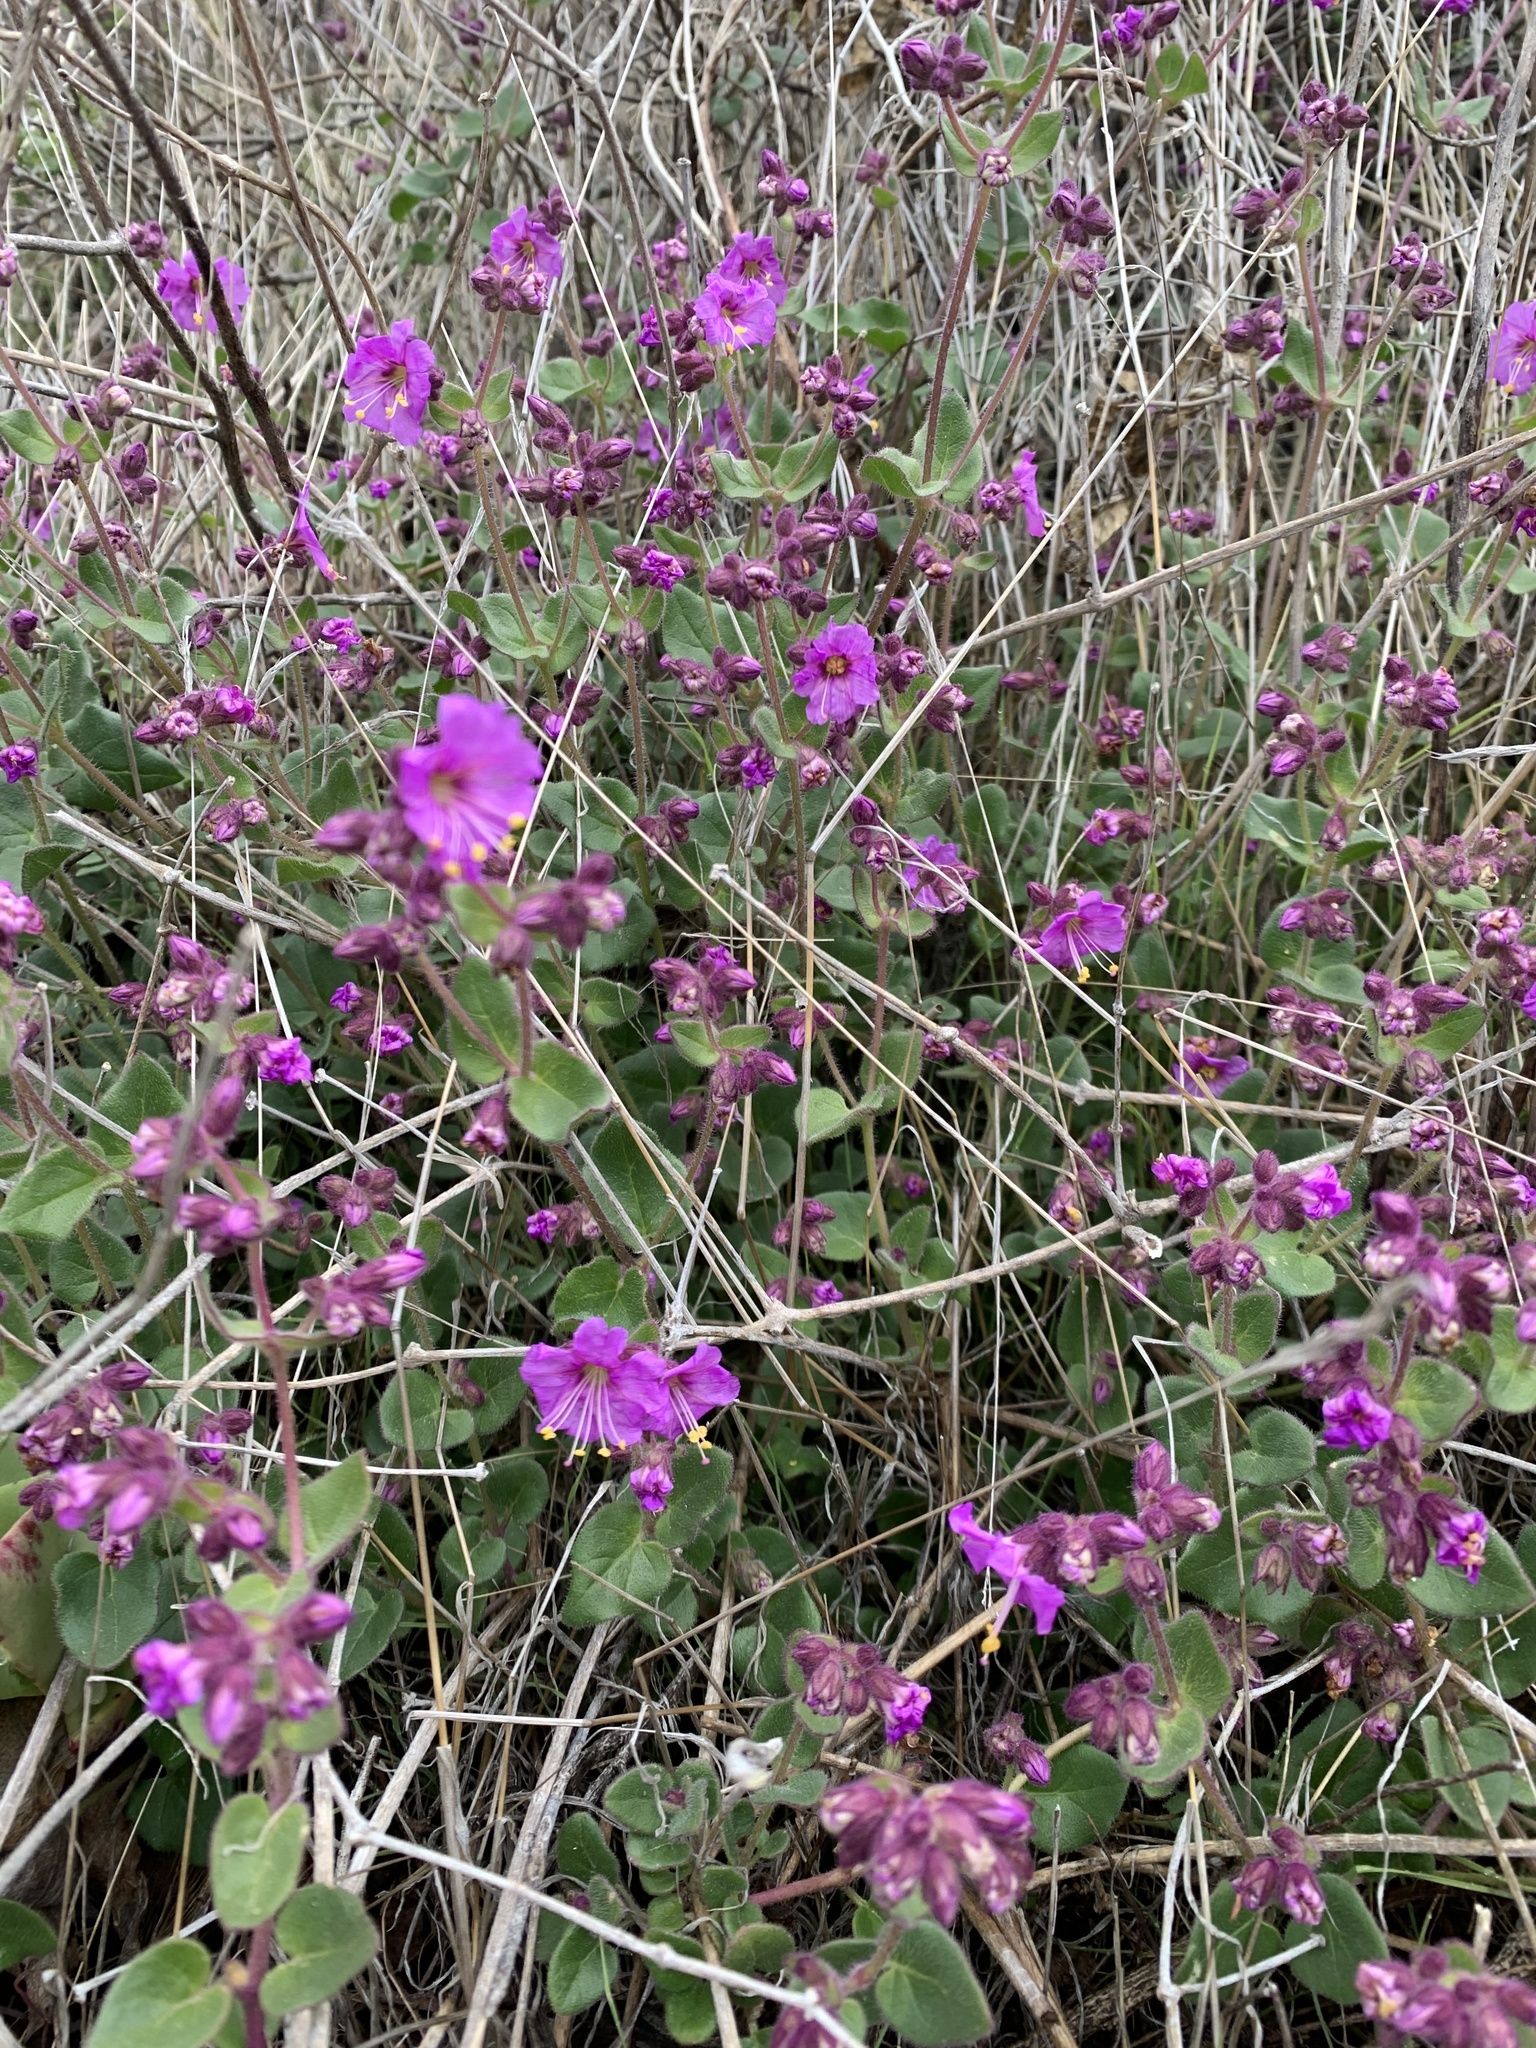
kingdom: Plantae
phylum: Tracheophyta
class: Magnoliopsida
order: Caryophyllales
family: Nyctaginaceae
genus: Mirabilis
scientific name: Mirabilis laevis
